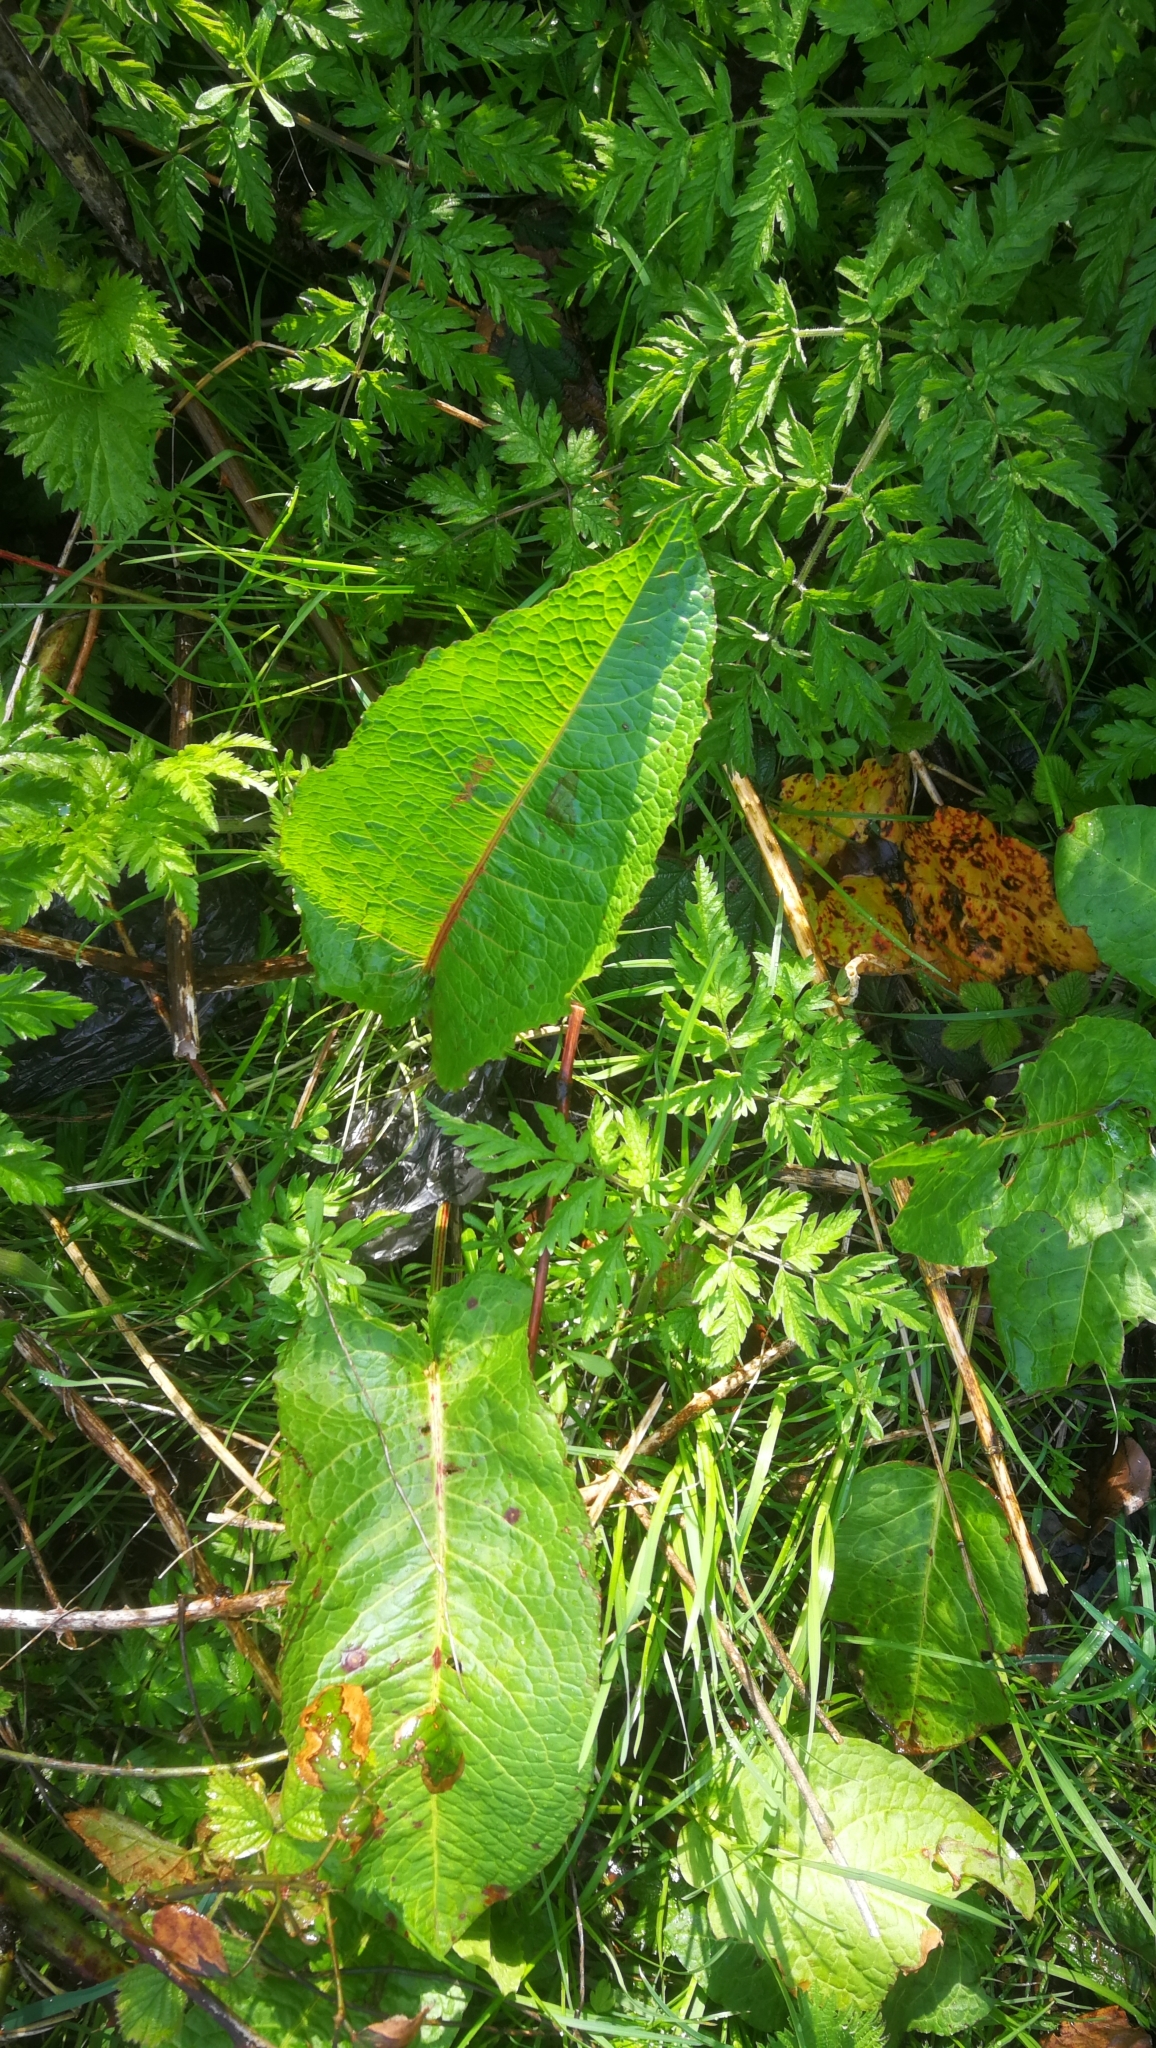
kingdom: Plantae
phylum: Tracheophyta
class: Magnoliopsida
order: Caryophyllales
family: Polygonaceae
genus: Rumex
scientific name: Rumex obtusifolius
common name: Bitter dock
